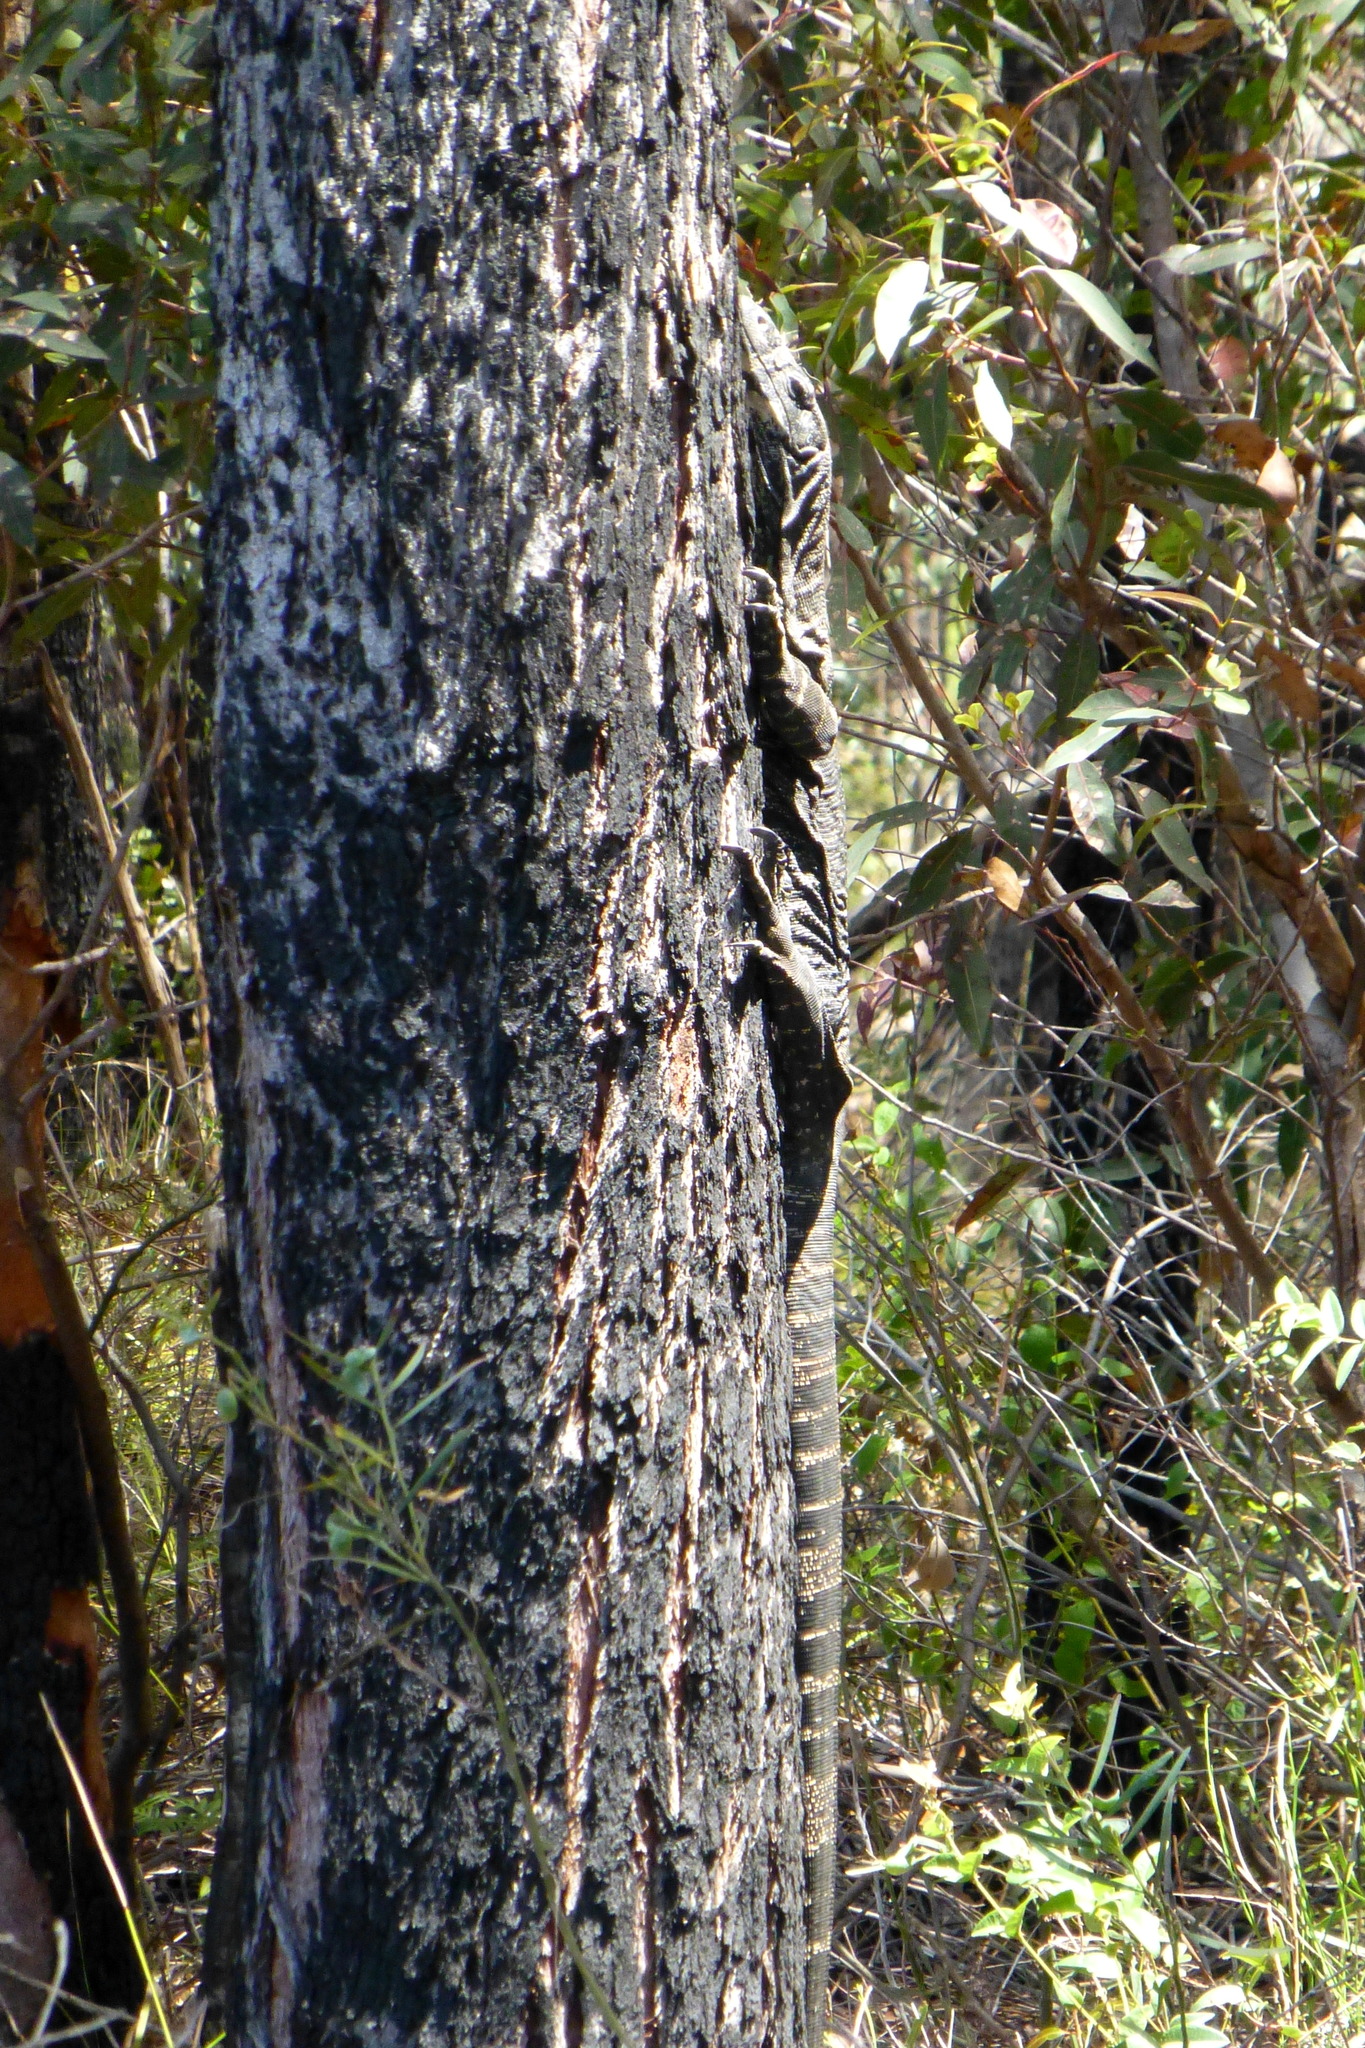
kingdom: Animalia
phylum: Chordata
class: Squamata
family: Varanidae
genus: Varanus
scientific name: Varanus varius
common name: Lace monitor
